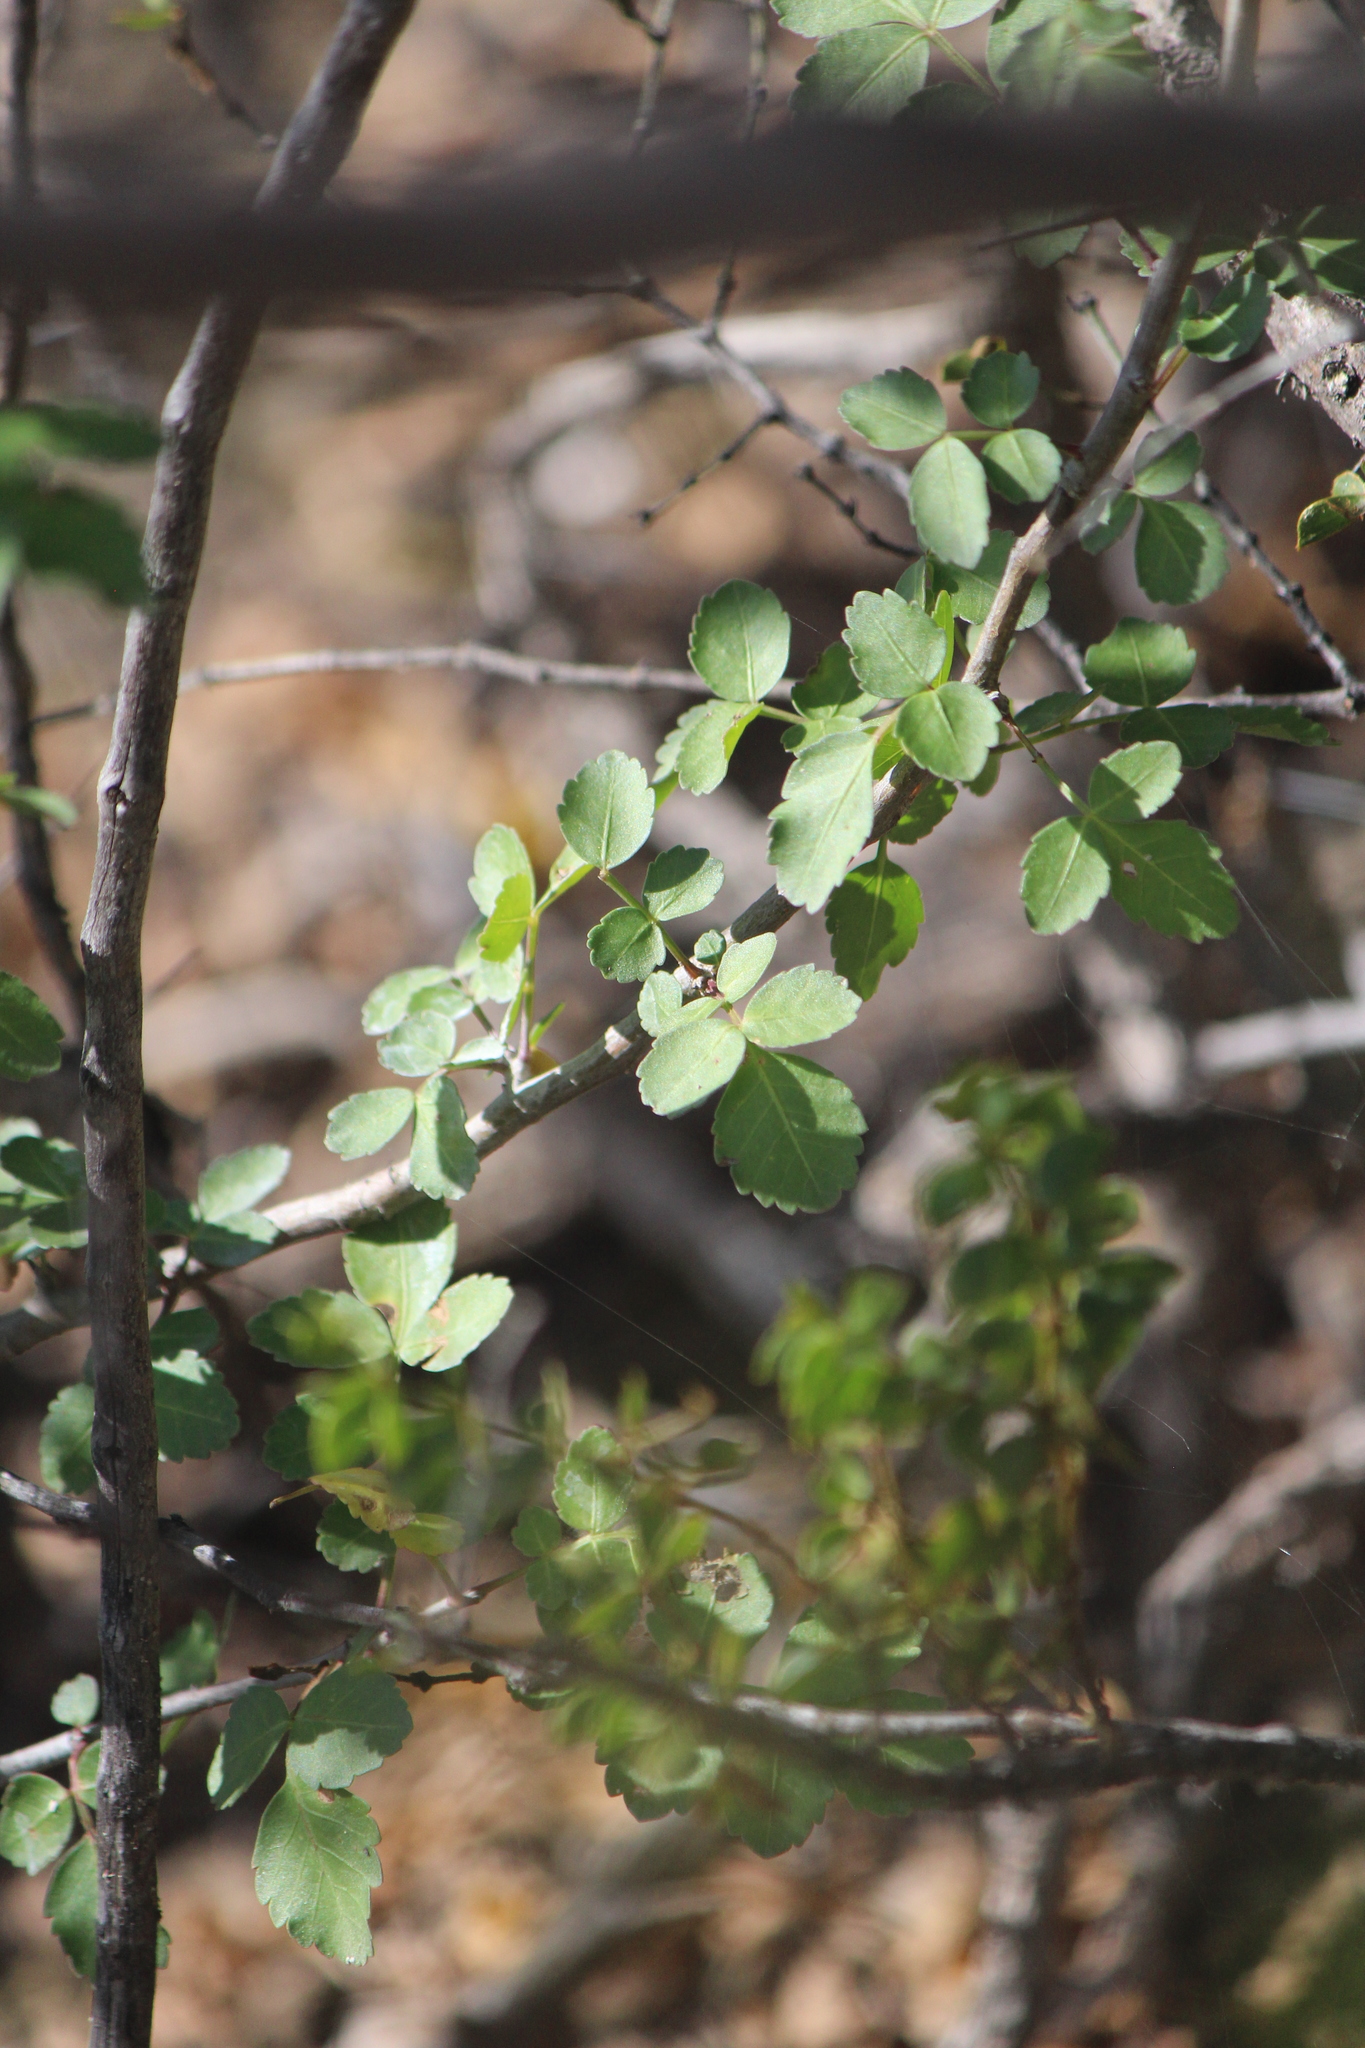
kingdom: Plantae
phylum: Tracheophyta
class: Magnoliopsida
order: Sapindales
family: Burseraceae
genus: Bursera
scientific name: Bursera fagaroides
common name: Elephant tree
